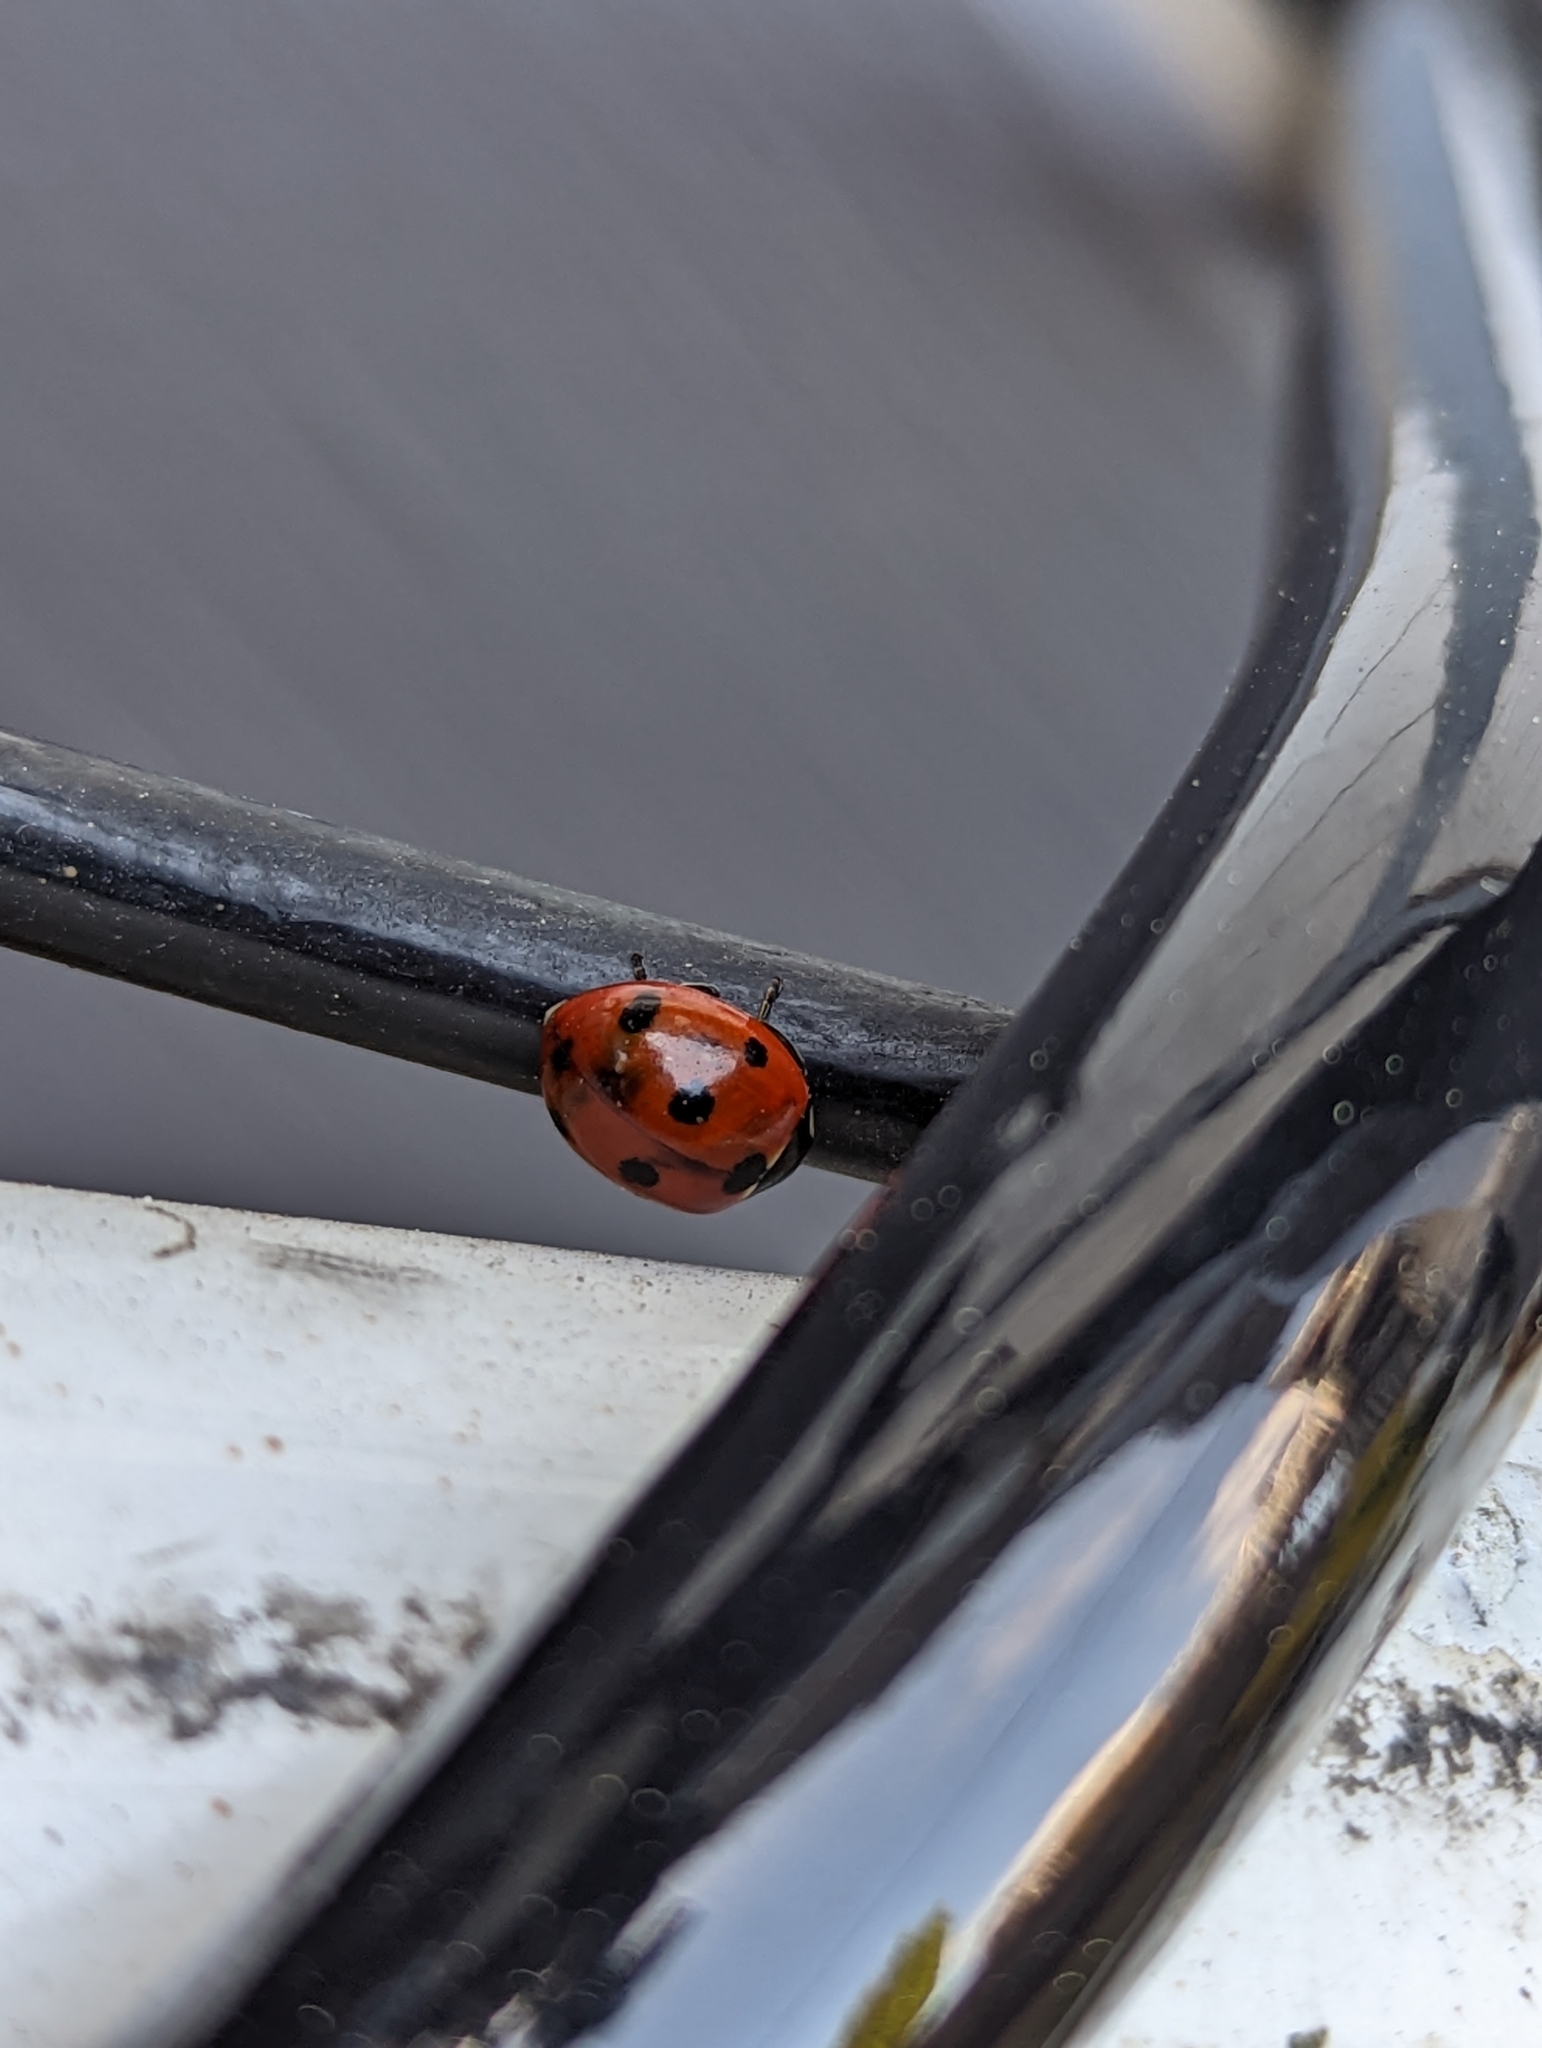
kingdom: Animalia
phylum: Arthropoda
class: Insecta
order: Coleoptera
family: Coccinellidae
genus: Coccinella
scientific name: Coccinella septempunctata
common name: Sevenspotted lady beetle
